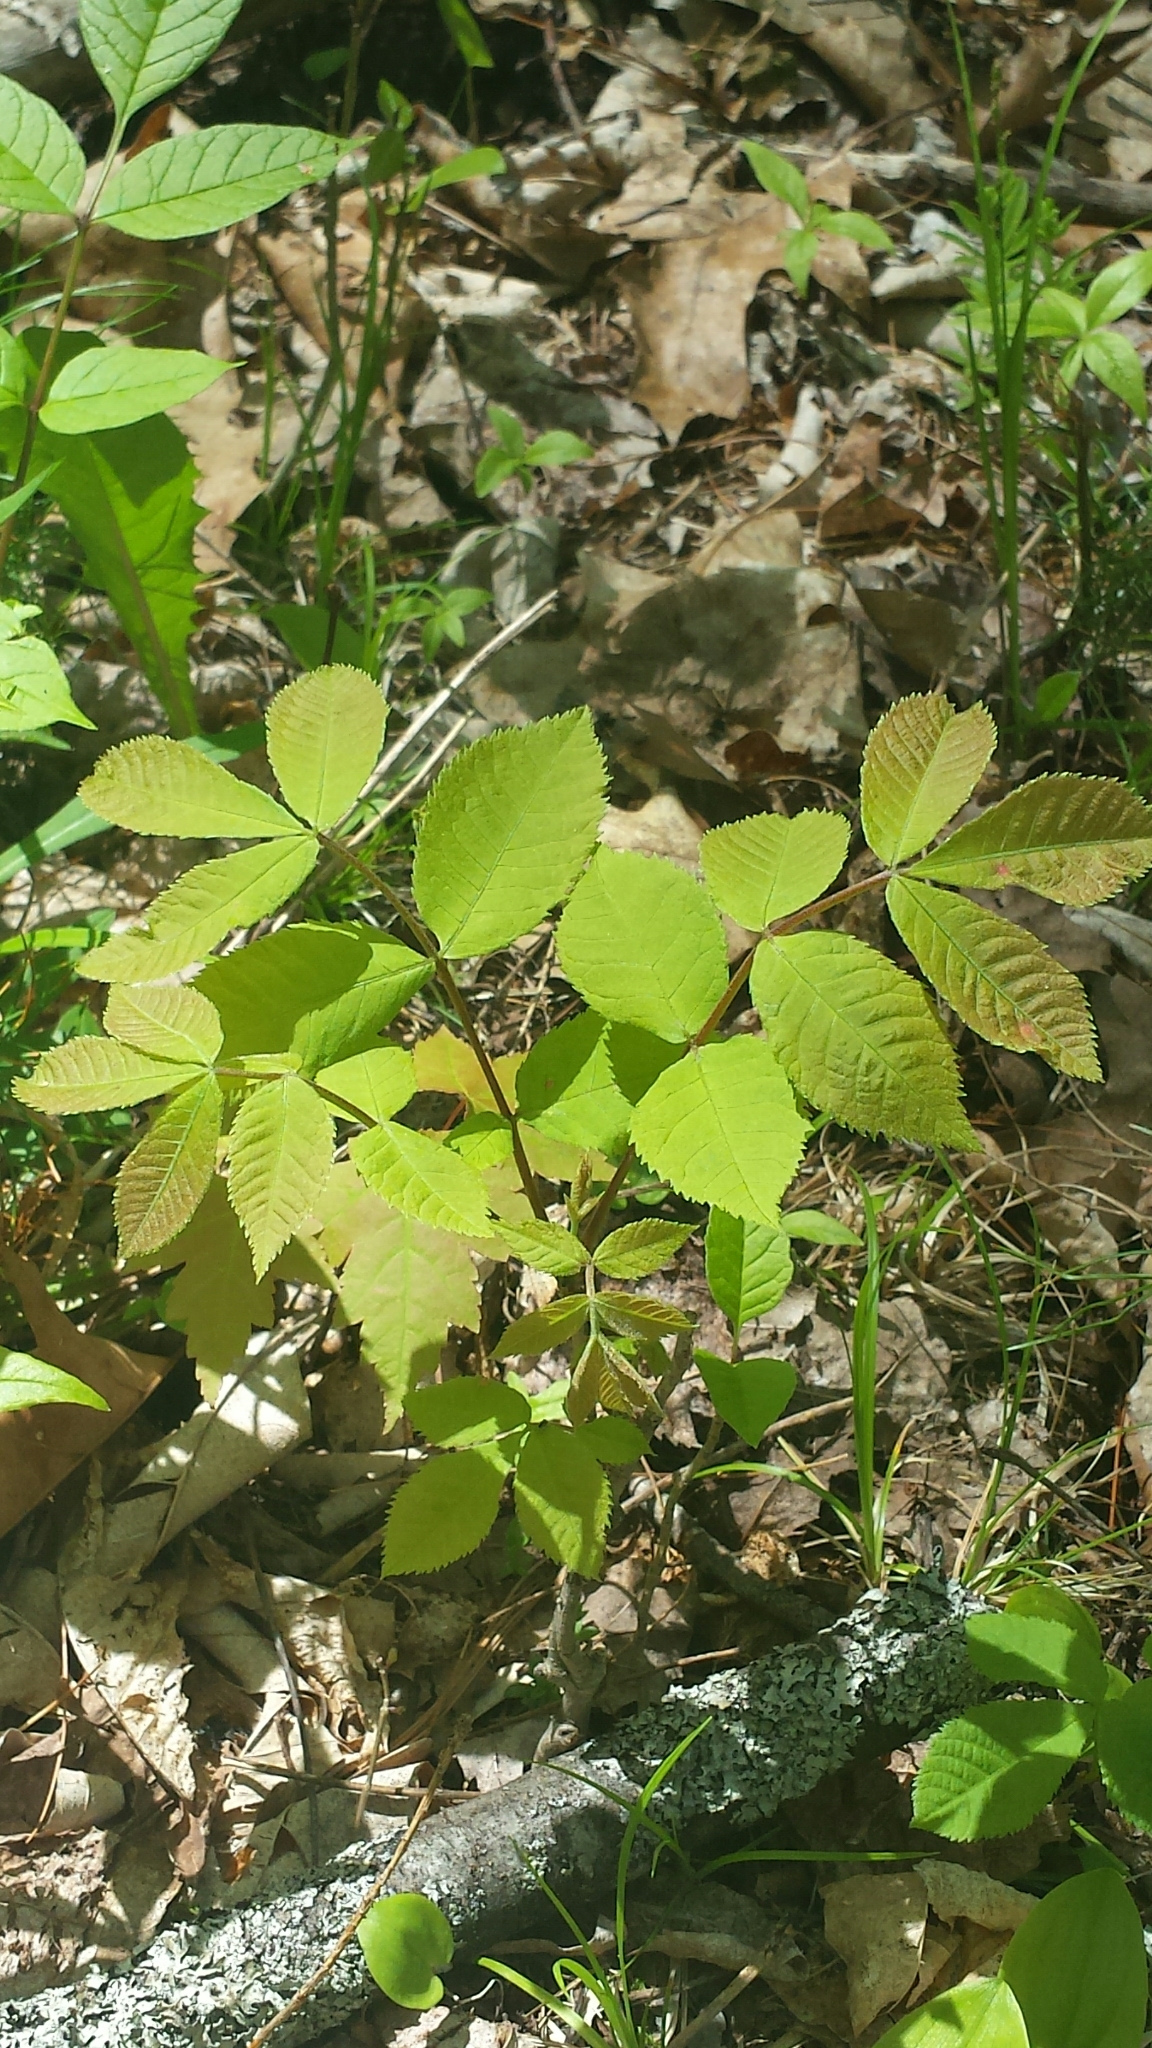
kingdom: Plantae
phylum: Tracheophyta
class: Magnoliopsida
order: Fagales
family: Juglandaceae
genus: Carya
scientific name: Carya cordiformis
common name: Bitternut hickory
